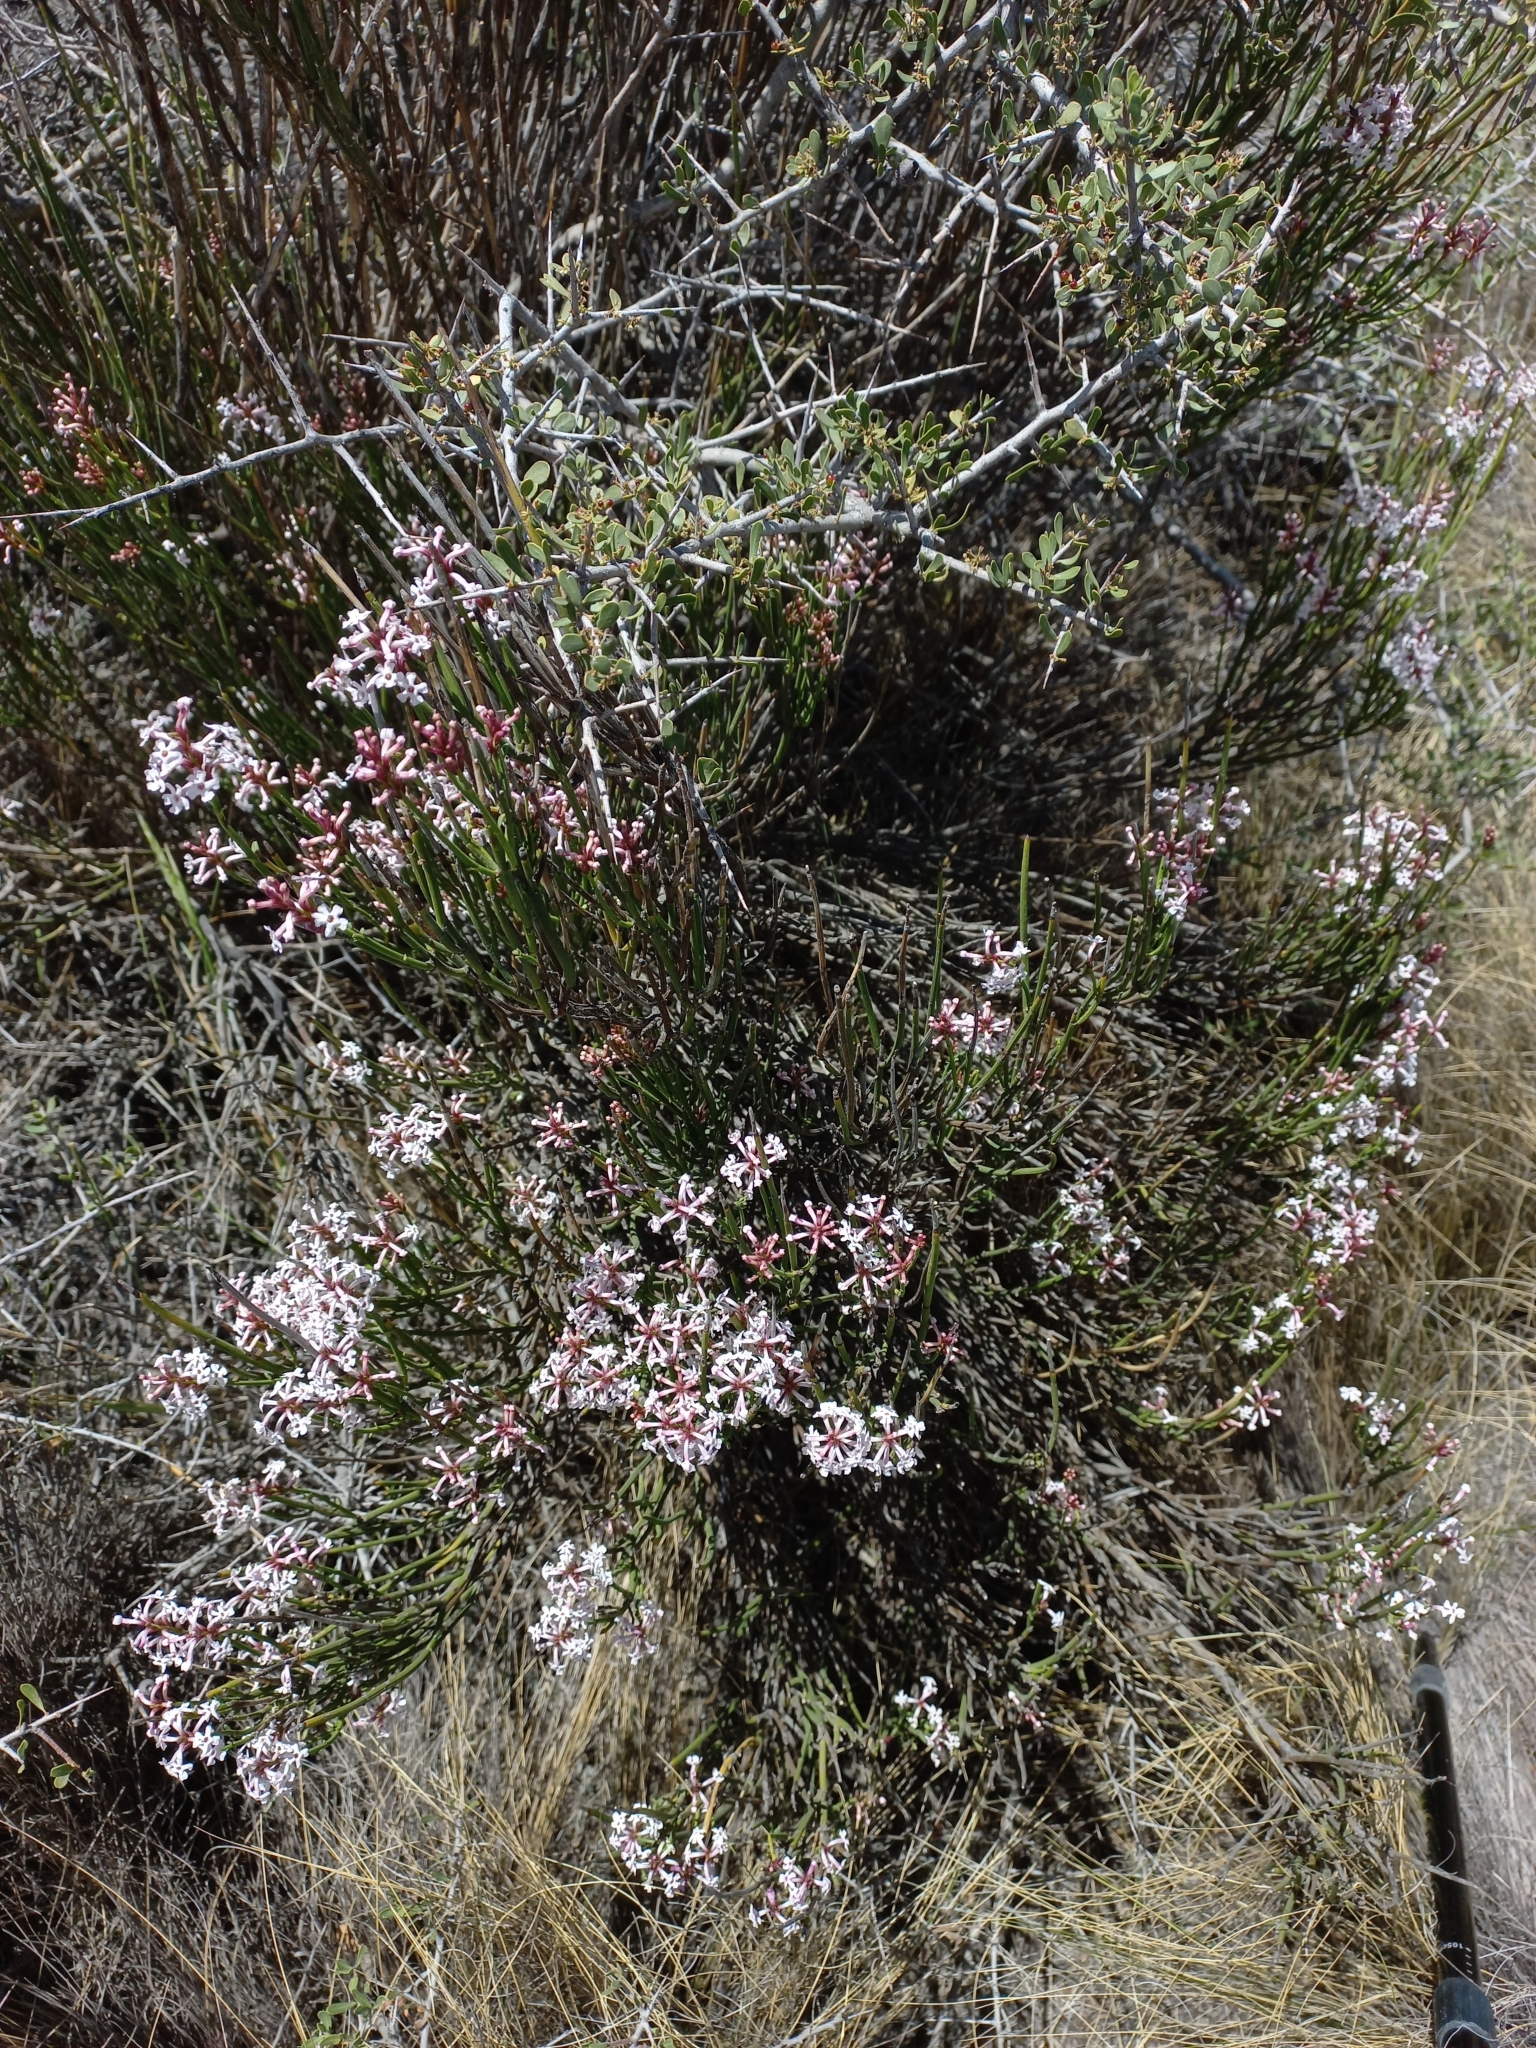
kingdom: Plantae
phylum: Tracheophyta
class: Magnoliopsida
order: Lamiales
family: Verbenaceae
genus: Mulguraea
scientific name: Mulguraea scoparia
